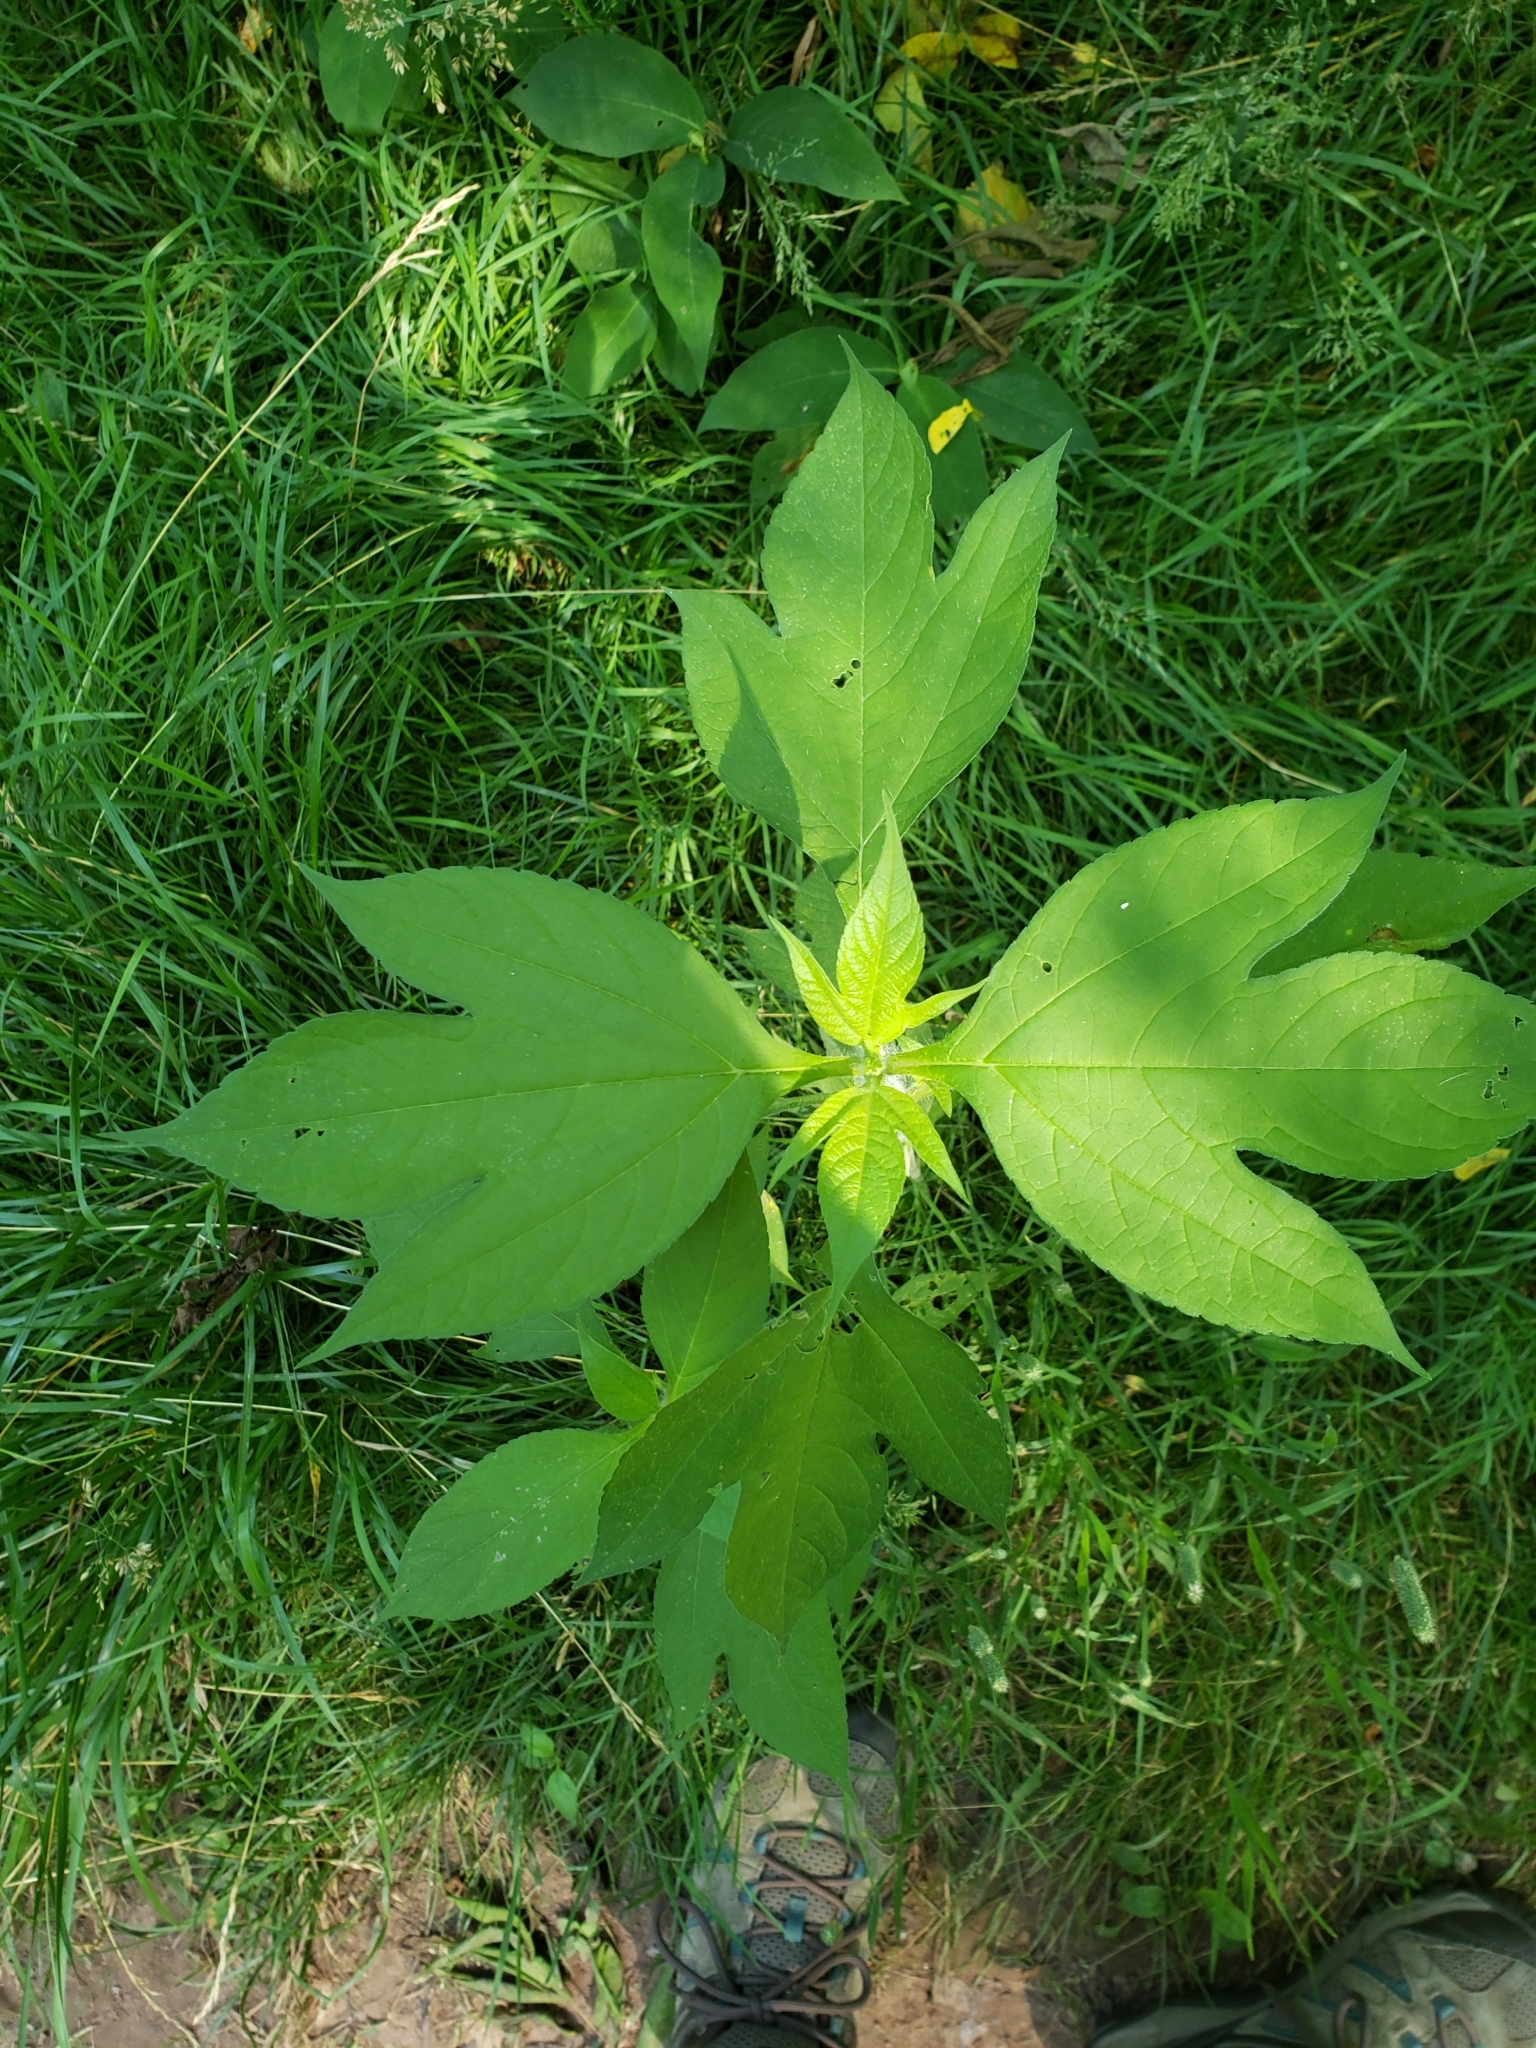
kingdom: Plantae
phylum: Tracheophyta
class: Magnoliopsida
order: Asterales
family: Asteraceae
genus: Ambrosia
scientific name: Ambrosia trifida
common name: Giant ragweed
